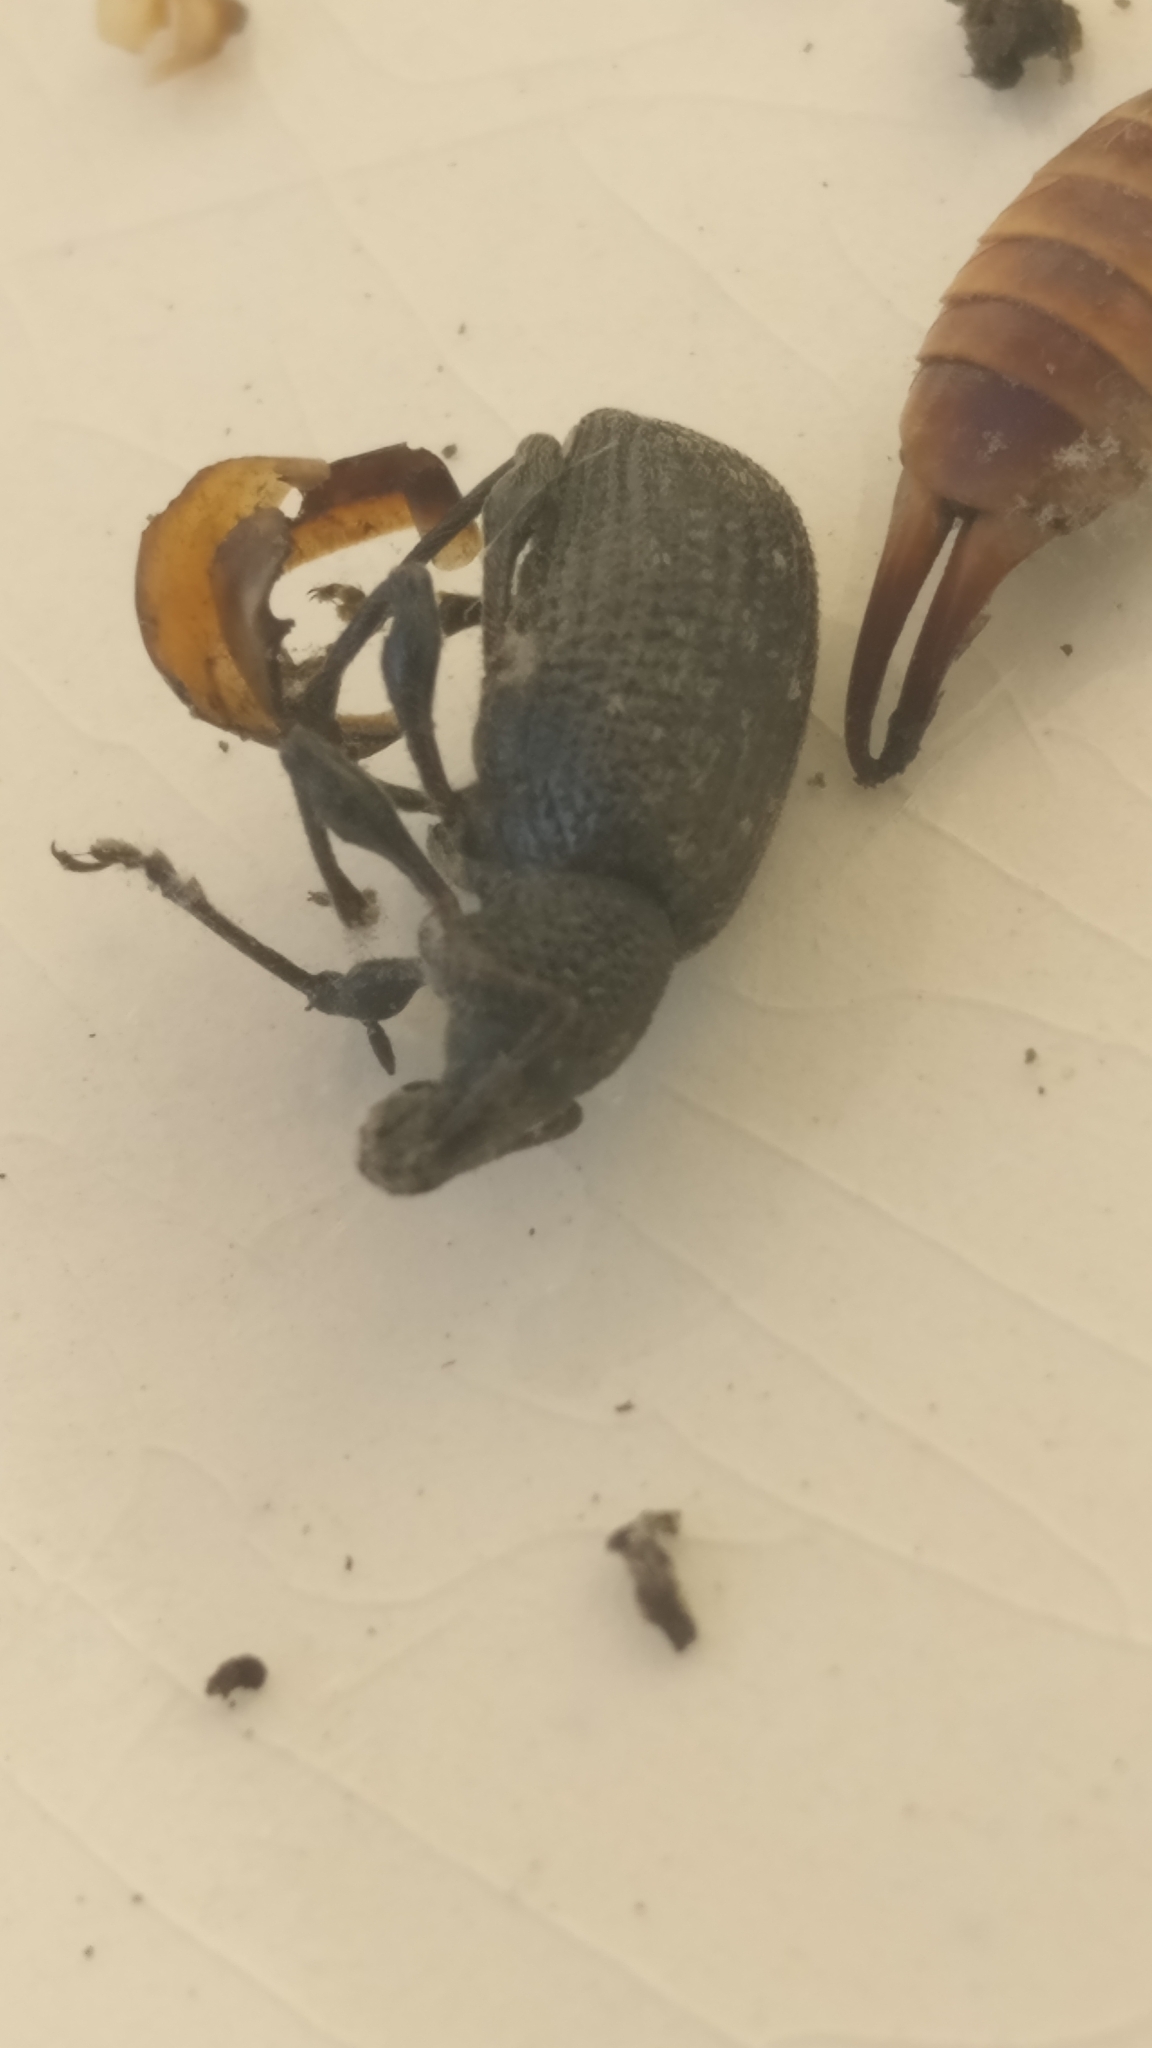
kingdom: Animalia
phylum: Arthropoda
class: Insecta
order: Coleoptera
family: Curculionidae
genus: Otiorhynchus
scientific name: Otiorhynchus sulcatus
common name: Black vine weevil
